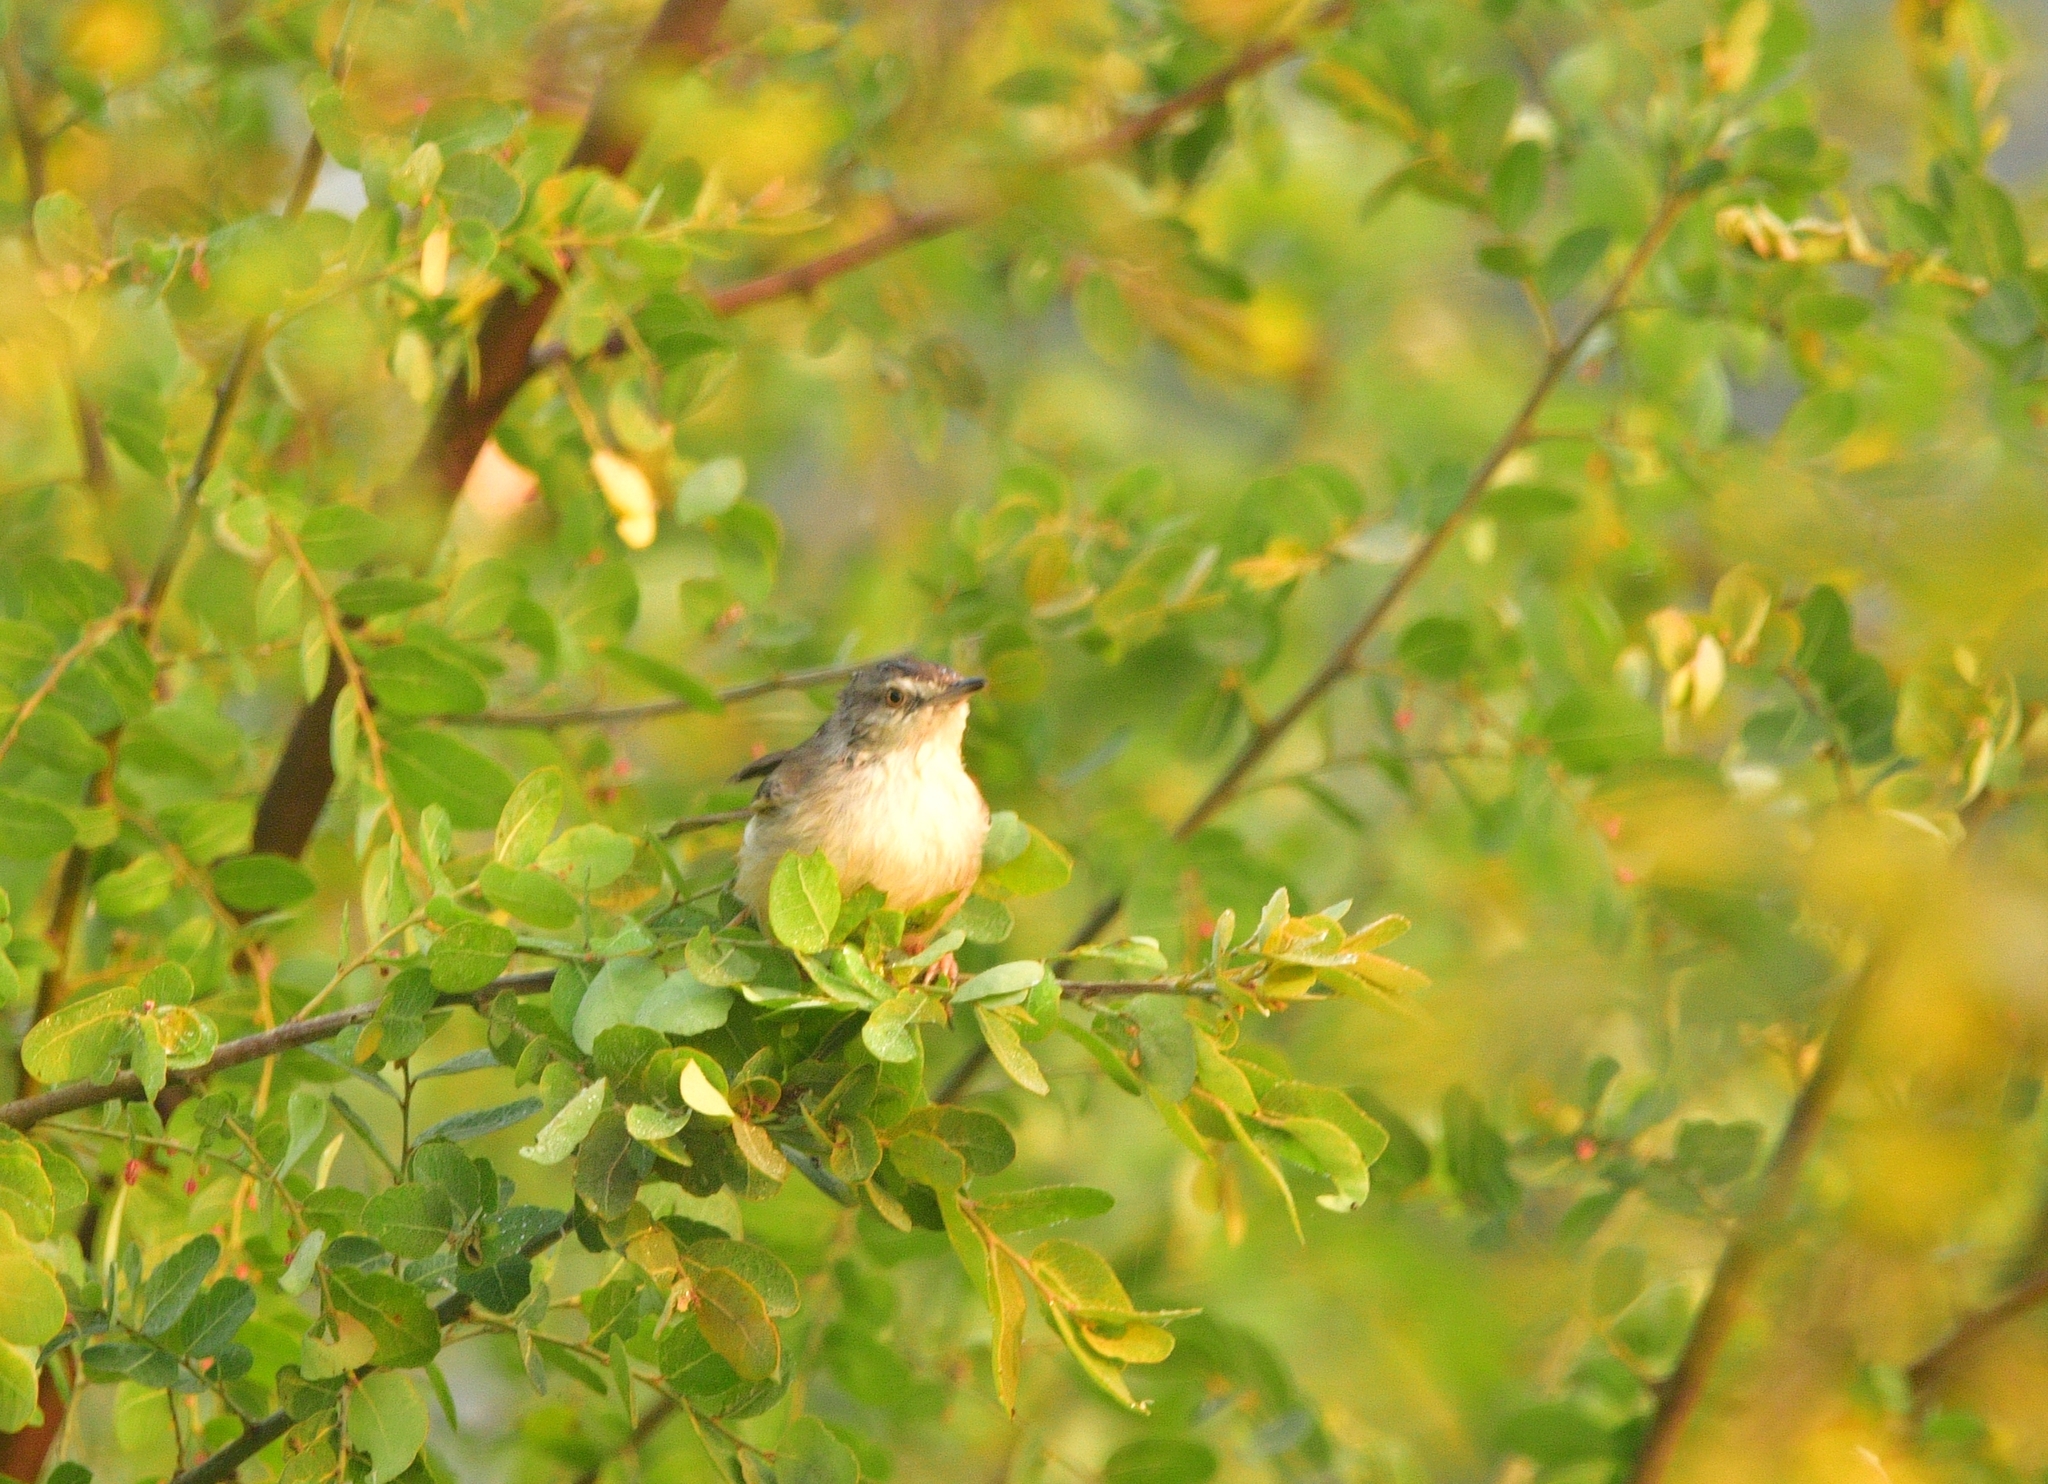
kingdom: Animalia
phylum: Chordata
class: Aves
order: Passeriformes
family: Cisticolidae
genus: Prinia
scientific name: Prinia inornata
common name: Plain prinia
